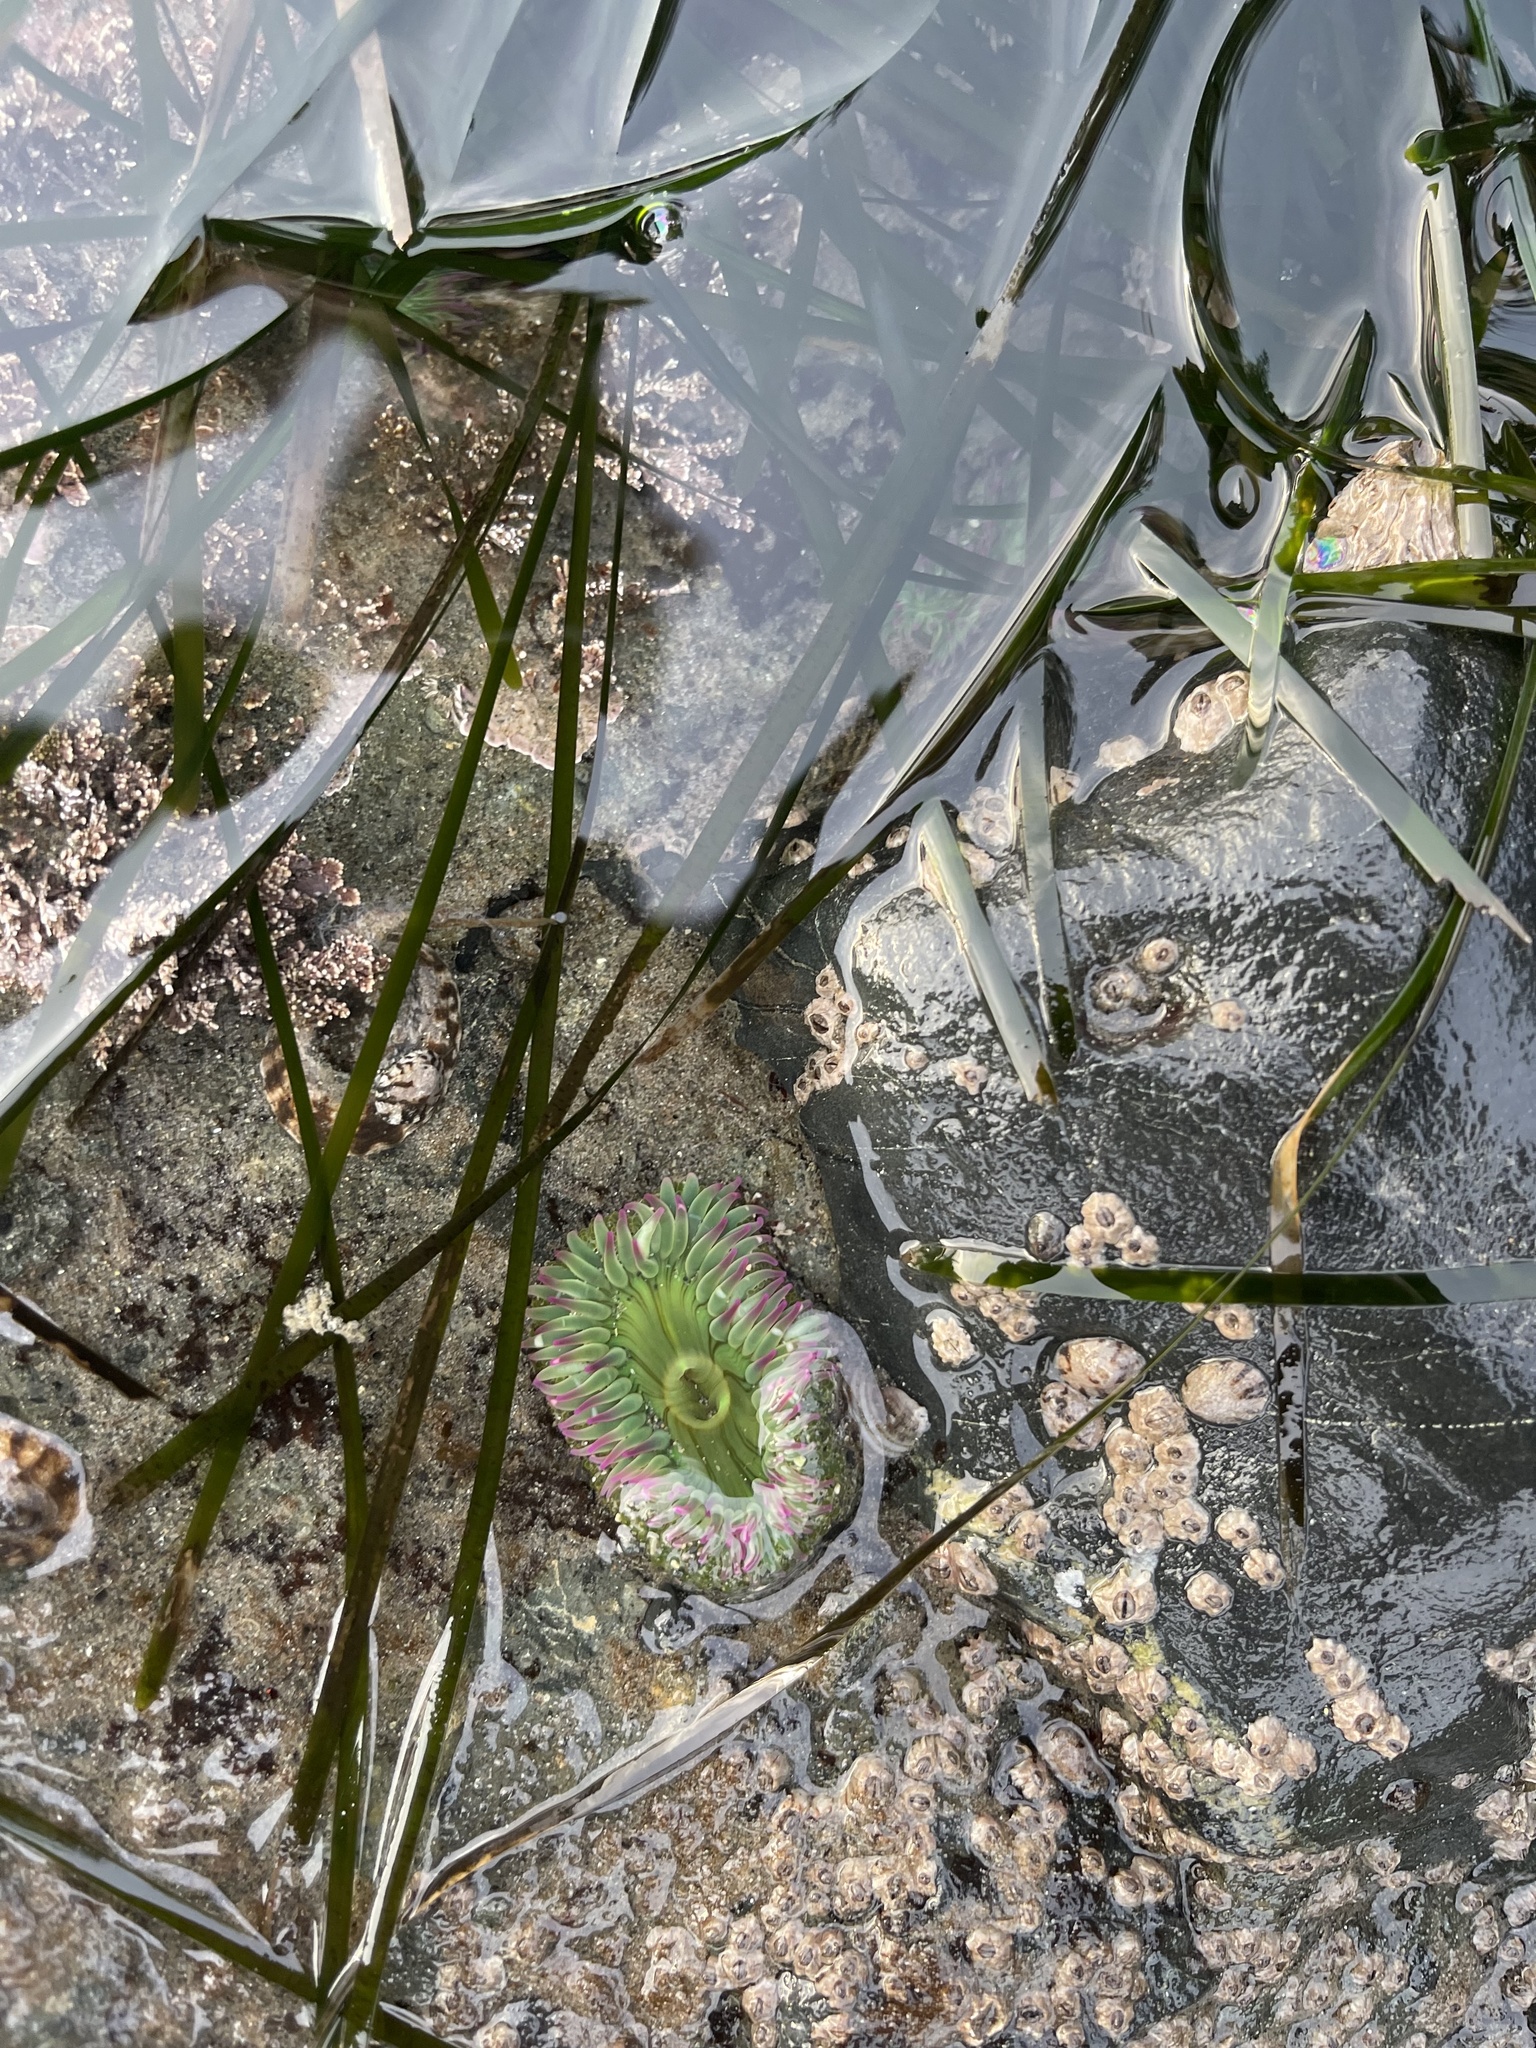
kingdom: Animalia
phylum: Cnidaria
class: Anthozoa
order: Actiniaria
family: Actiniidae
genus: Anthopleura
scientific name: Anthopleura elegantissima
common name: Clonal anemone
